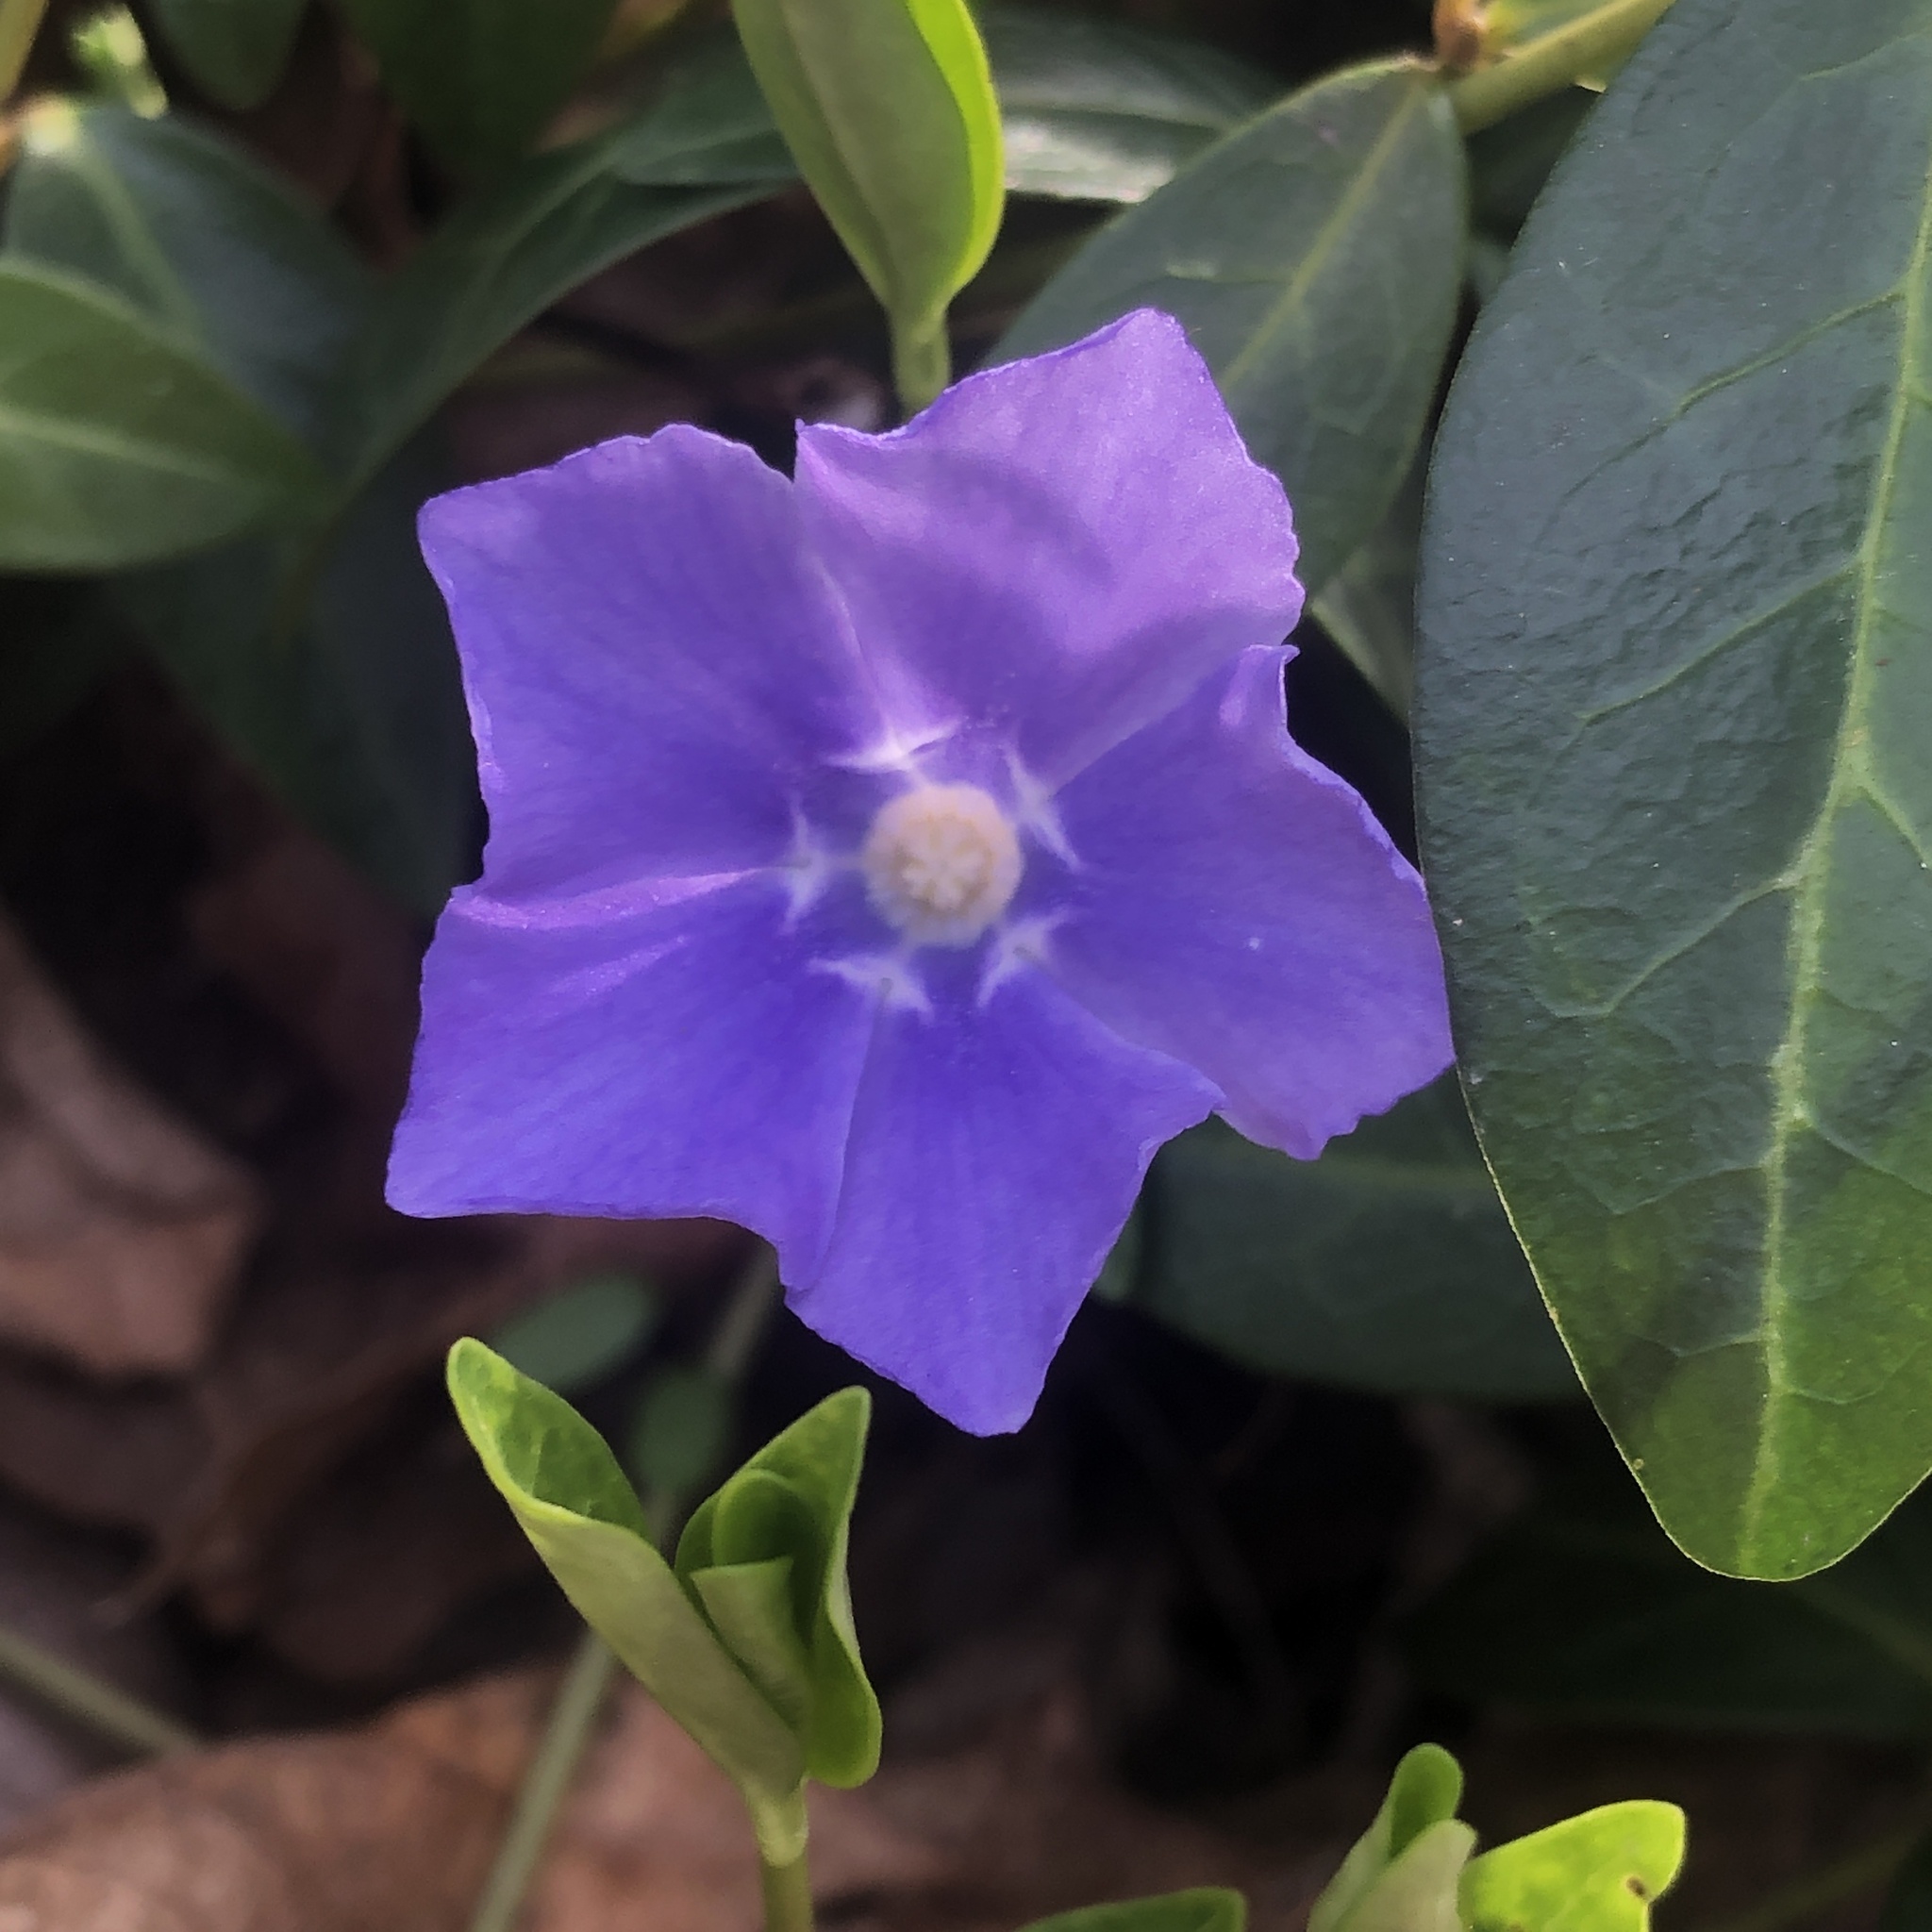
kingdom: Plantae
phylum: Tracheophyta
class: Magnoliopsida
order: Gentianales
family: Apocynaceae
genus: Vinca
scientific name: Vinca minor
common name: Lesser periwinkle
